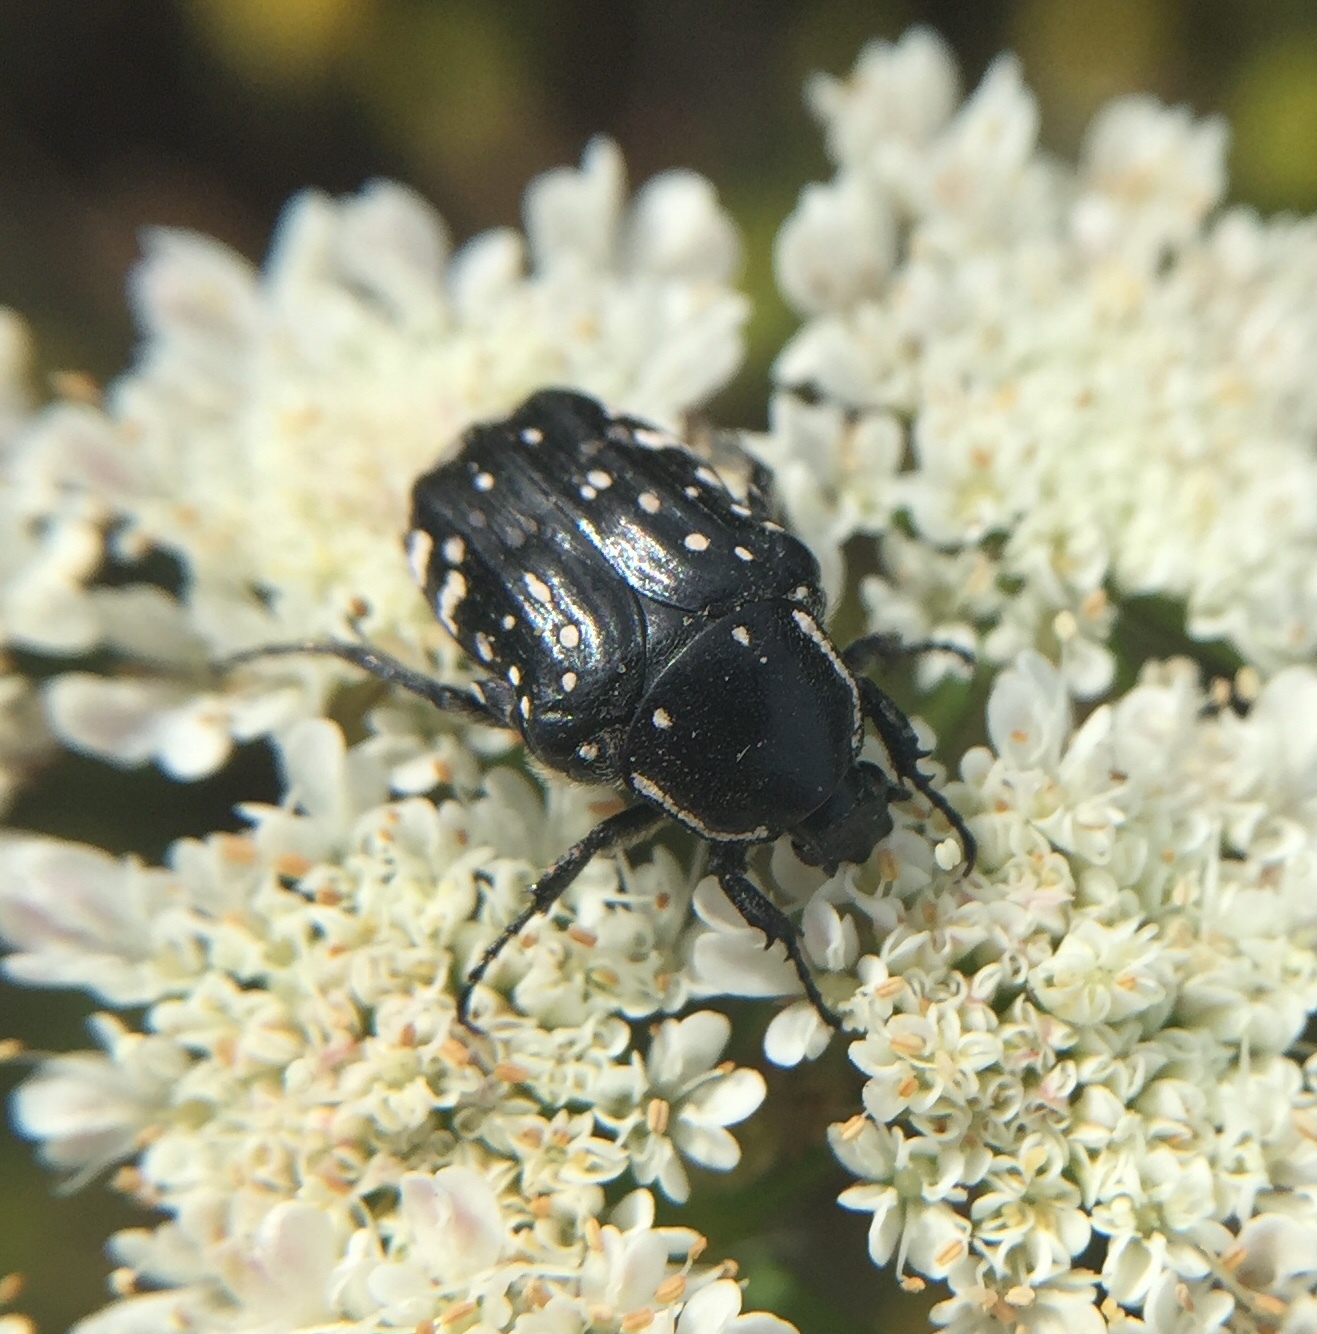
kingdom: Animalia
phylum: Arthropoda
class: Insecta
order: Coleoptera
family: Scarabaeidae
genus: Oxythyrea
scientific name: Oxythyrea cinctella
